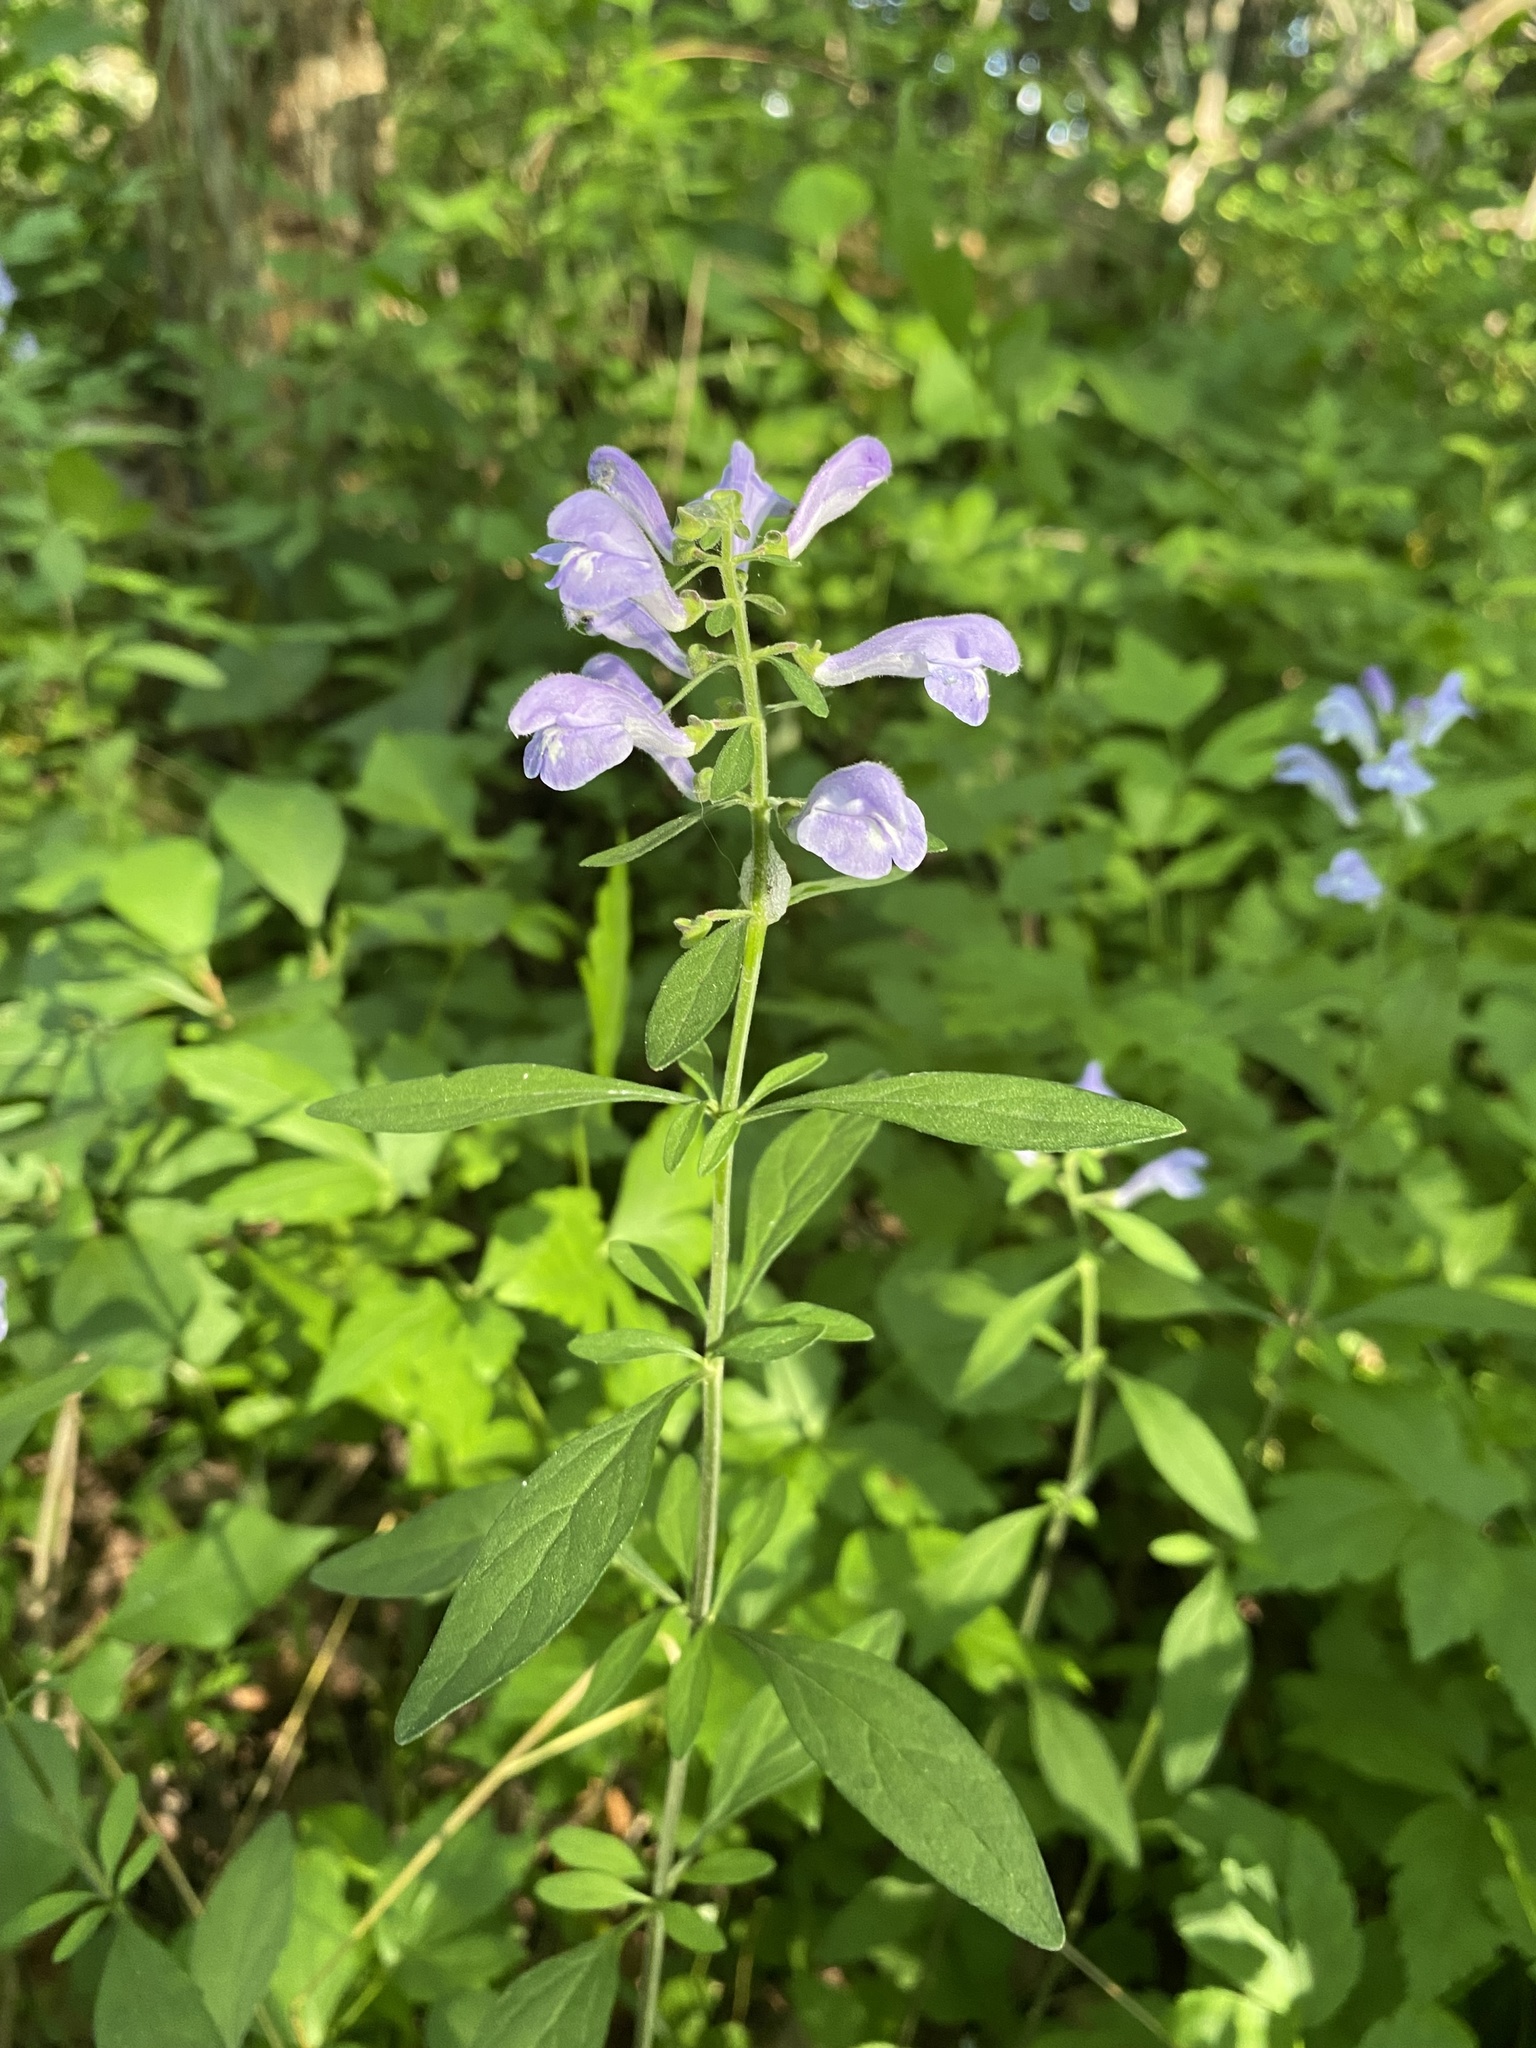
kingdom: Plantae
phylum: Tracheophyta
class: Magnoliopsida
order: Lamiales
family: Lamiaceae
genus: Scutellaria
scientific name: Scutellaria integrifolia
